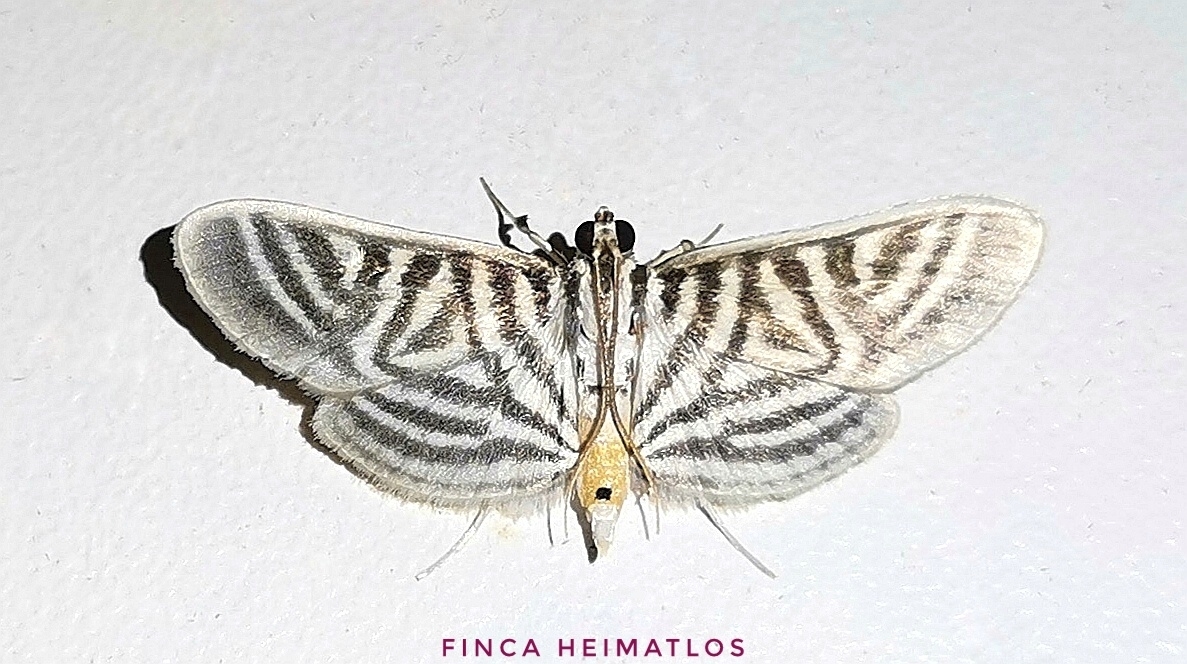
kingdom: Animalia
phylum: Arthropoda
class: Insecta
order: Lepidoptera
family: Crambidae
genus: Zebronia
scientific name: Zebronia
